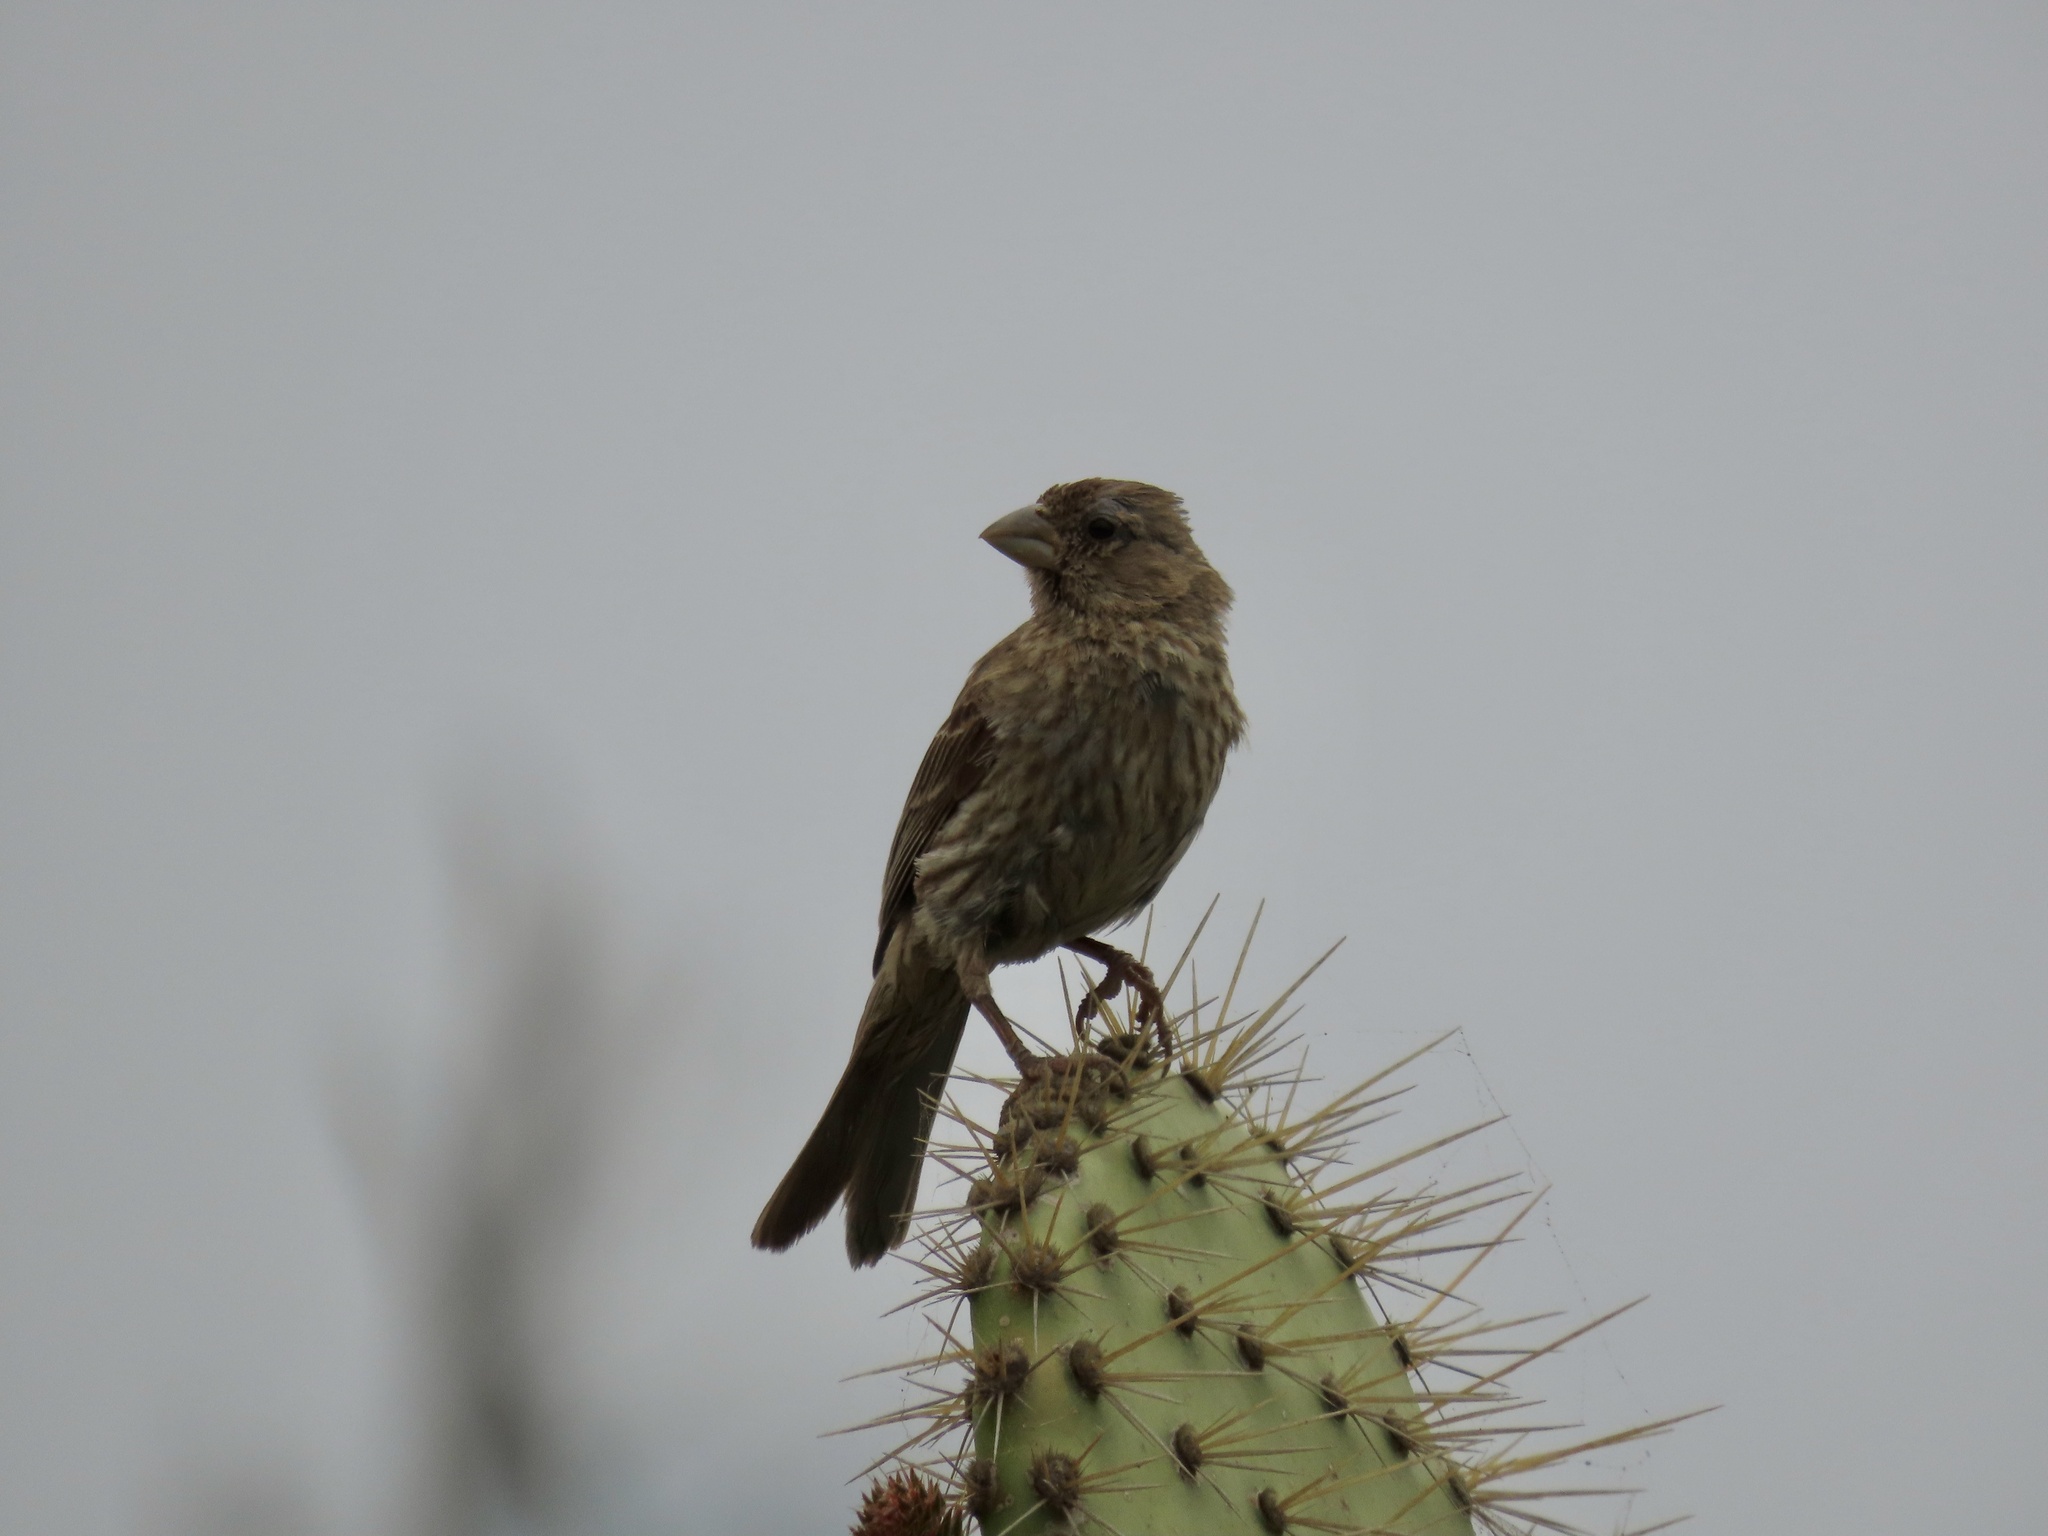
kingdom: Animalia
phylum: Chordata
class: Aves
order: Passeriformes
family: Fringillidae
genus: Haemorhous
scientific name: Haemorhous mexicanus
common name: House finch
